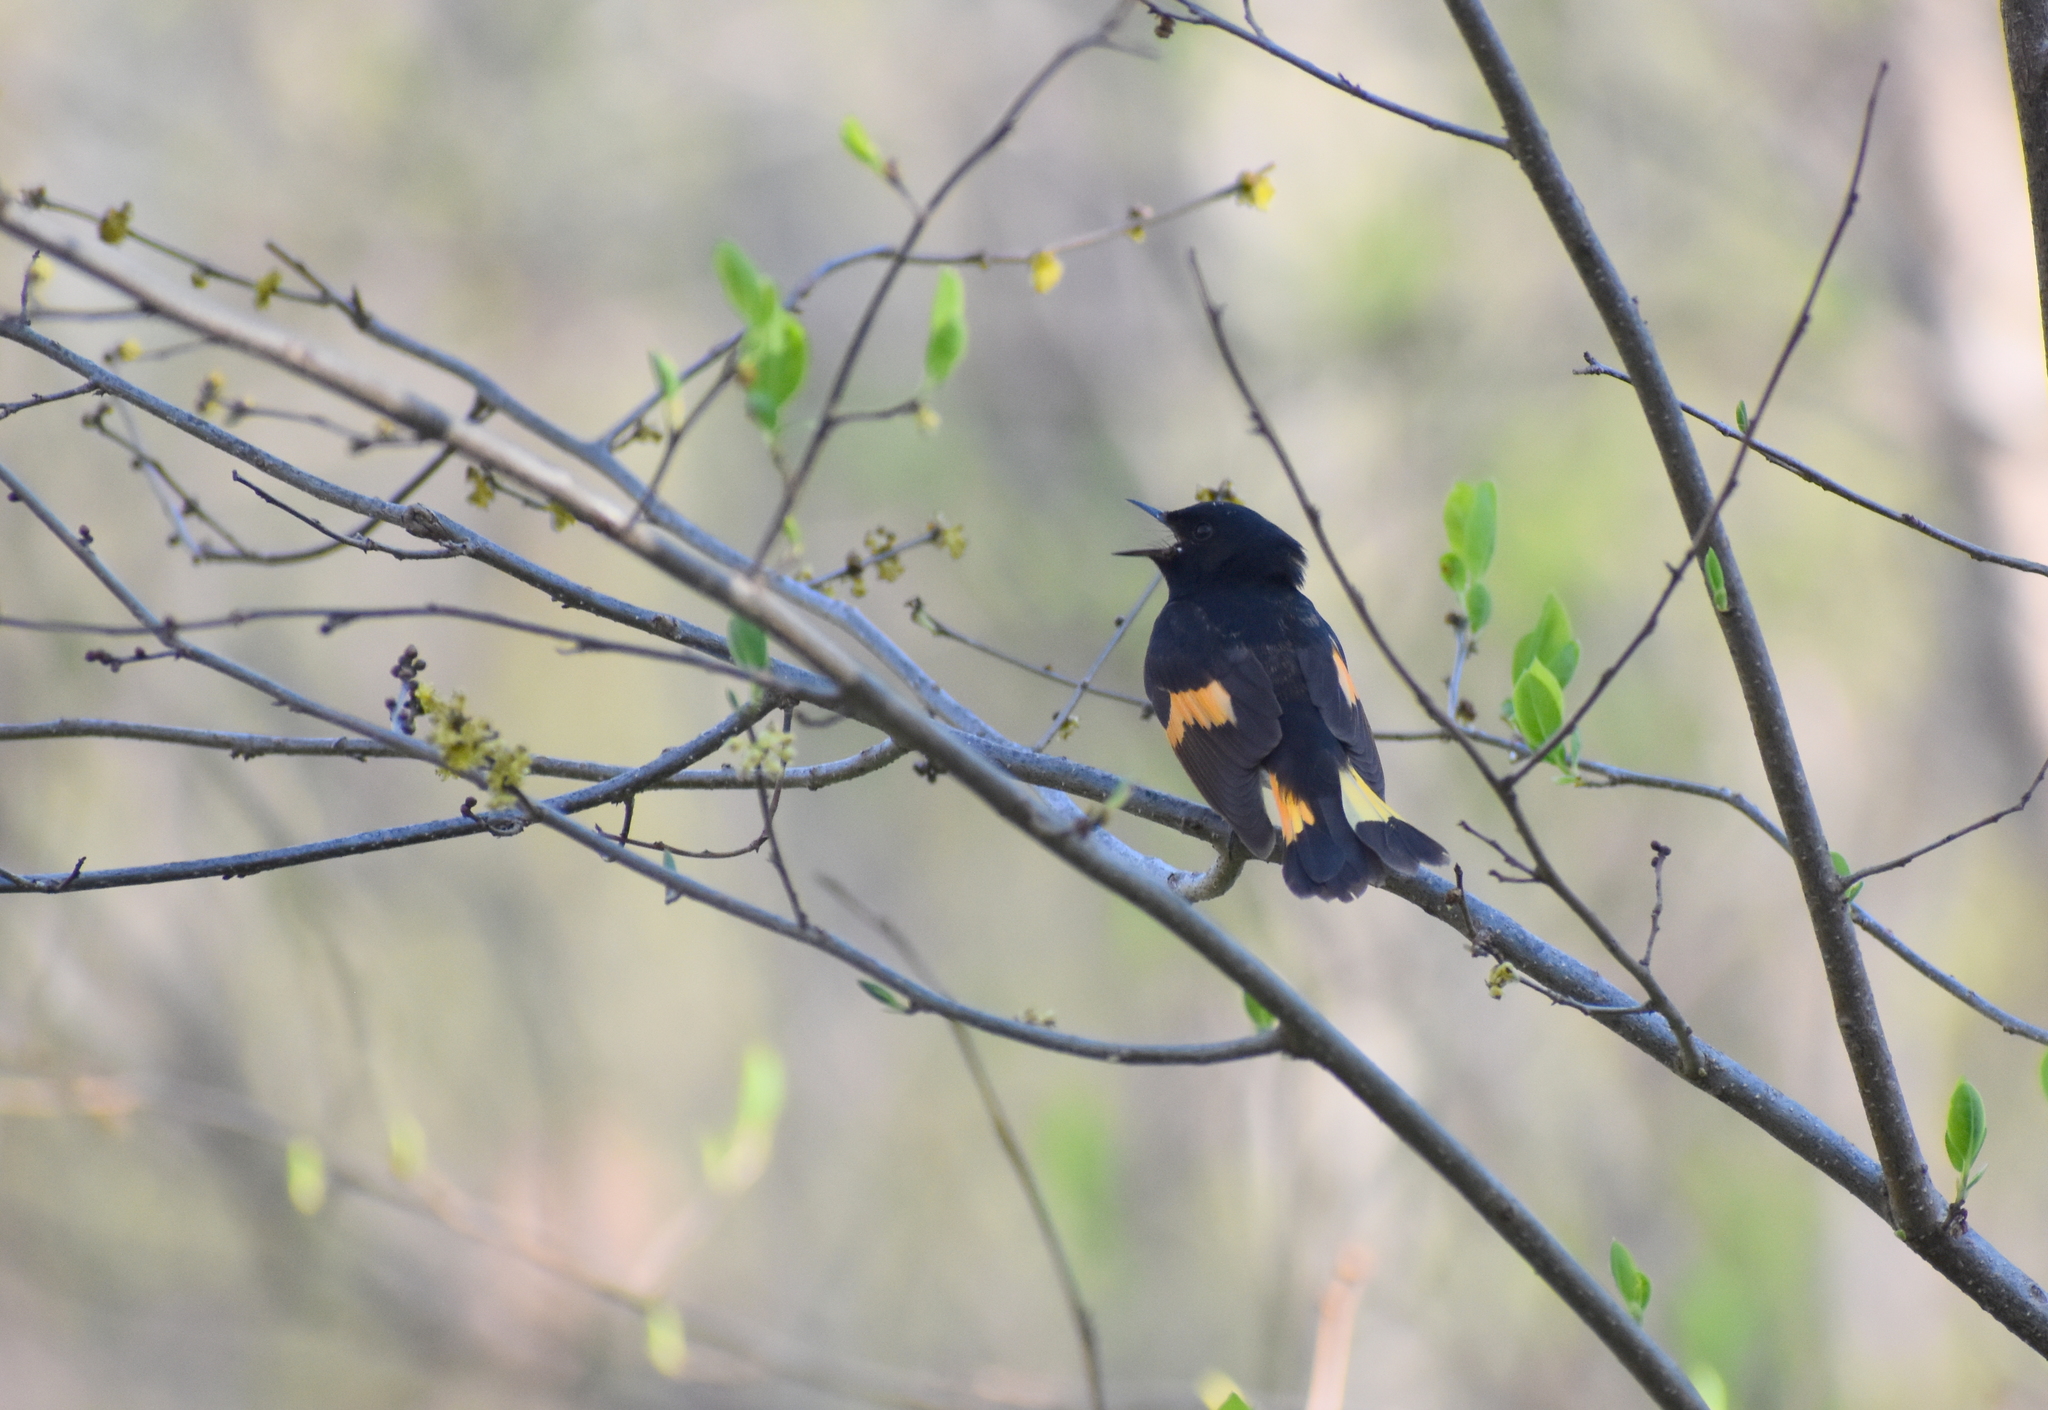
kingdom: Animalia
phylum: Chordata
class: Aves
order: Passeriformes
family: Parulidae
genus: Setophaga
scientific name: Setophaga ruticilla
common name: American redstart
